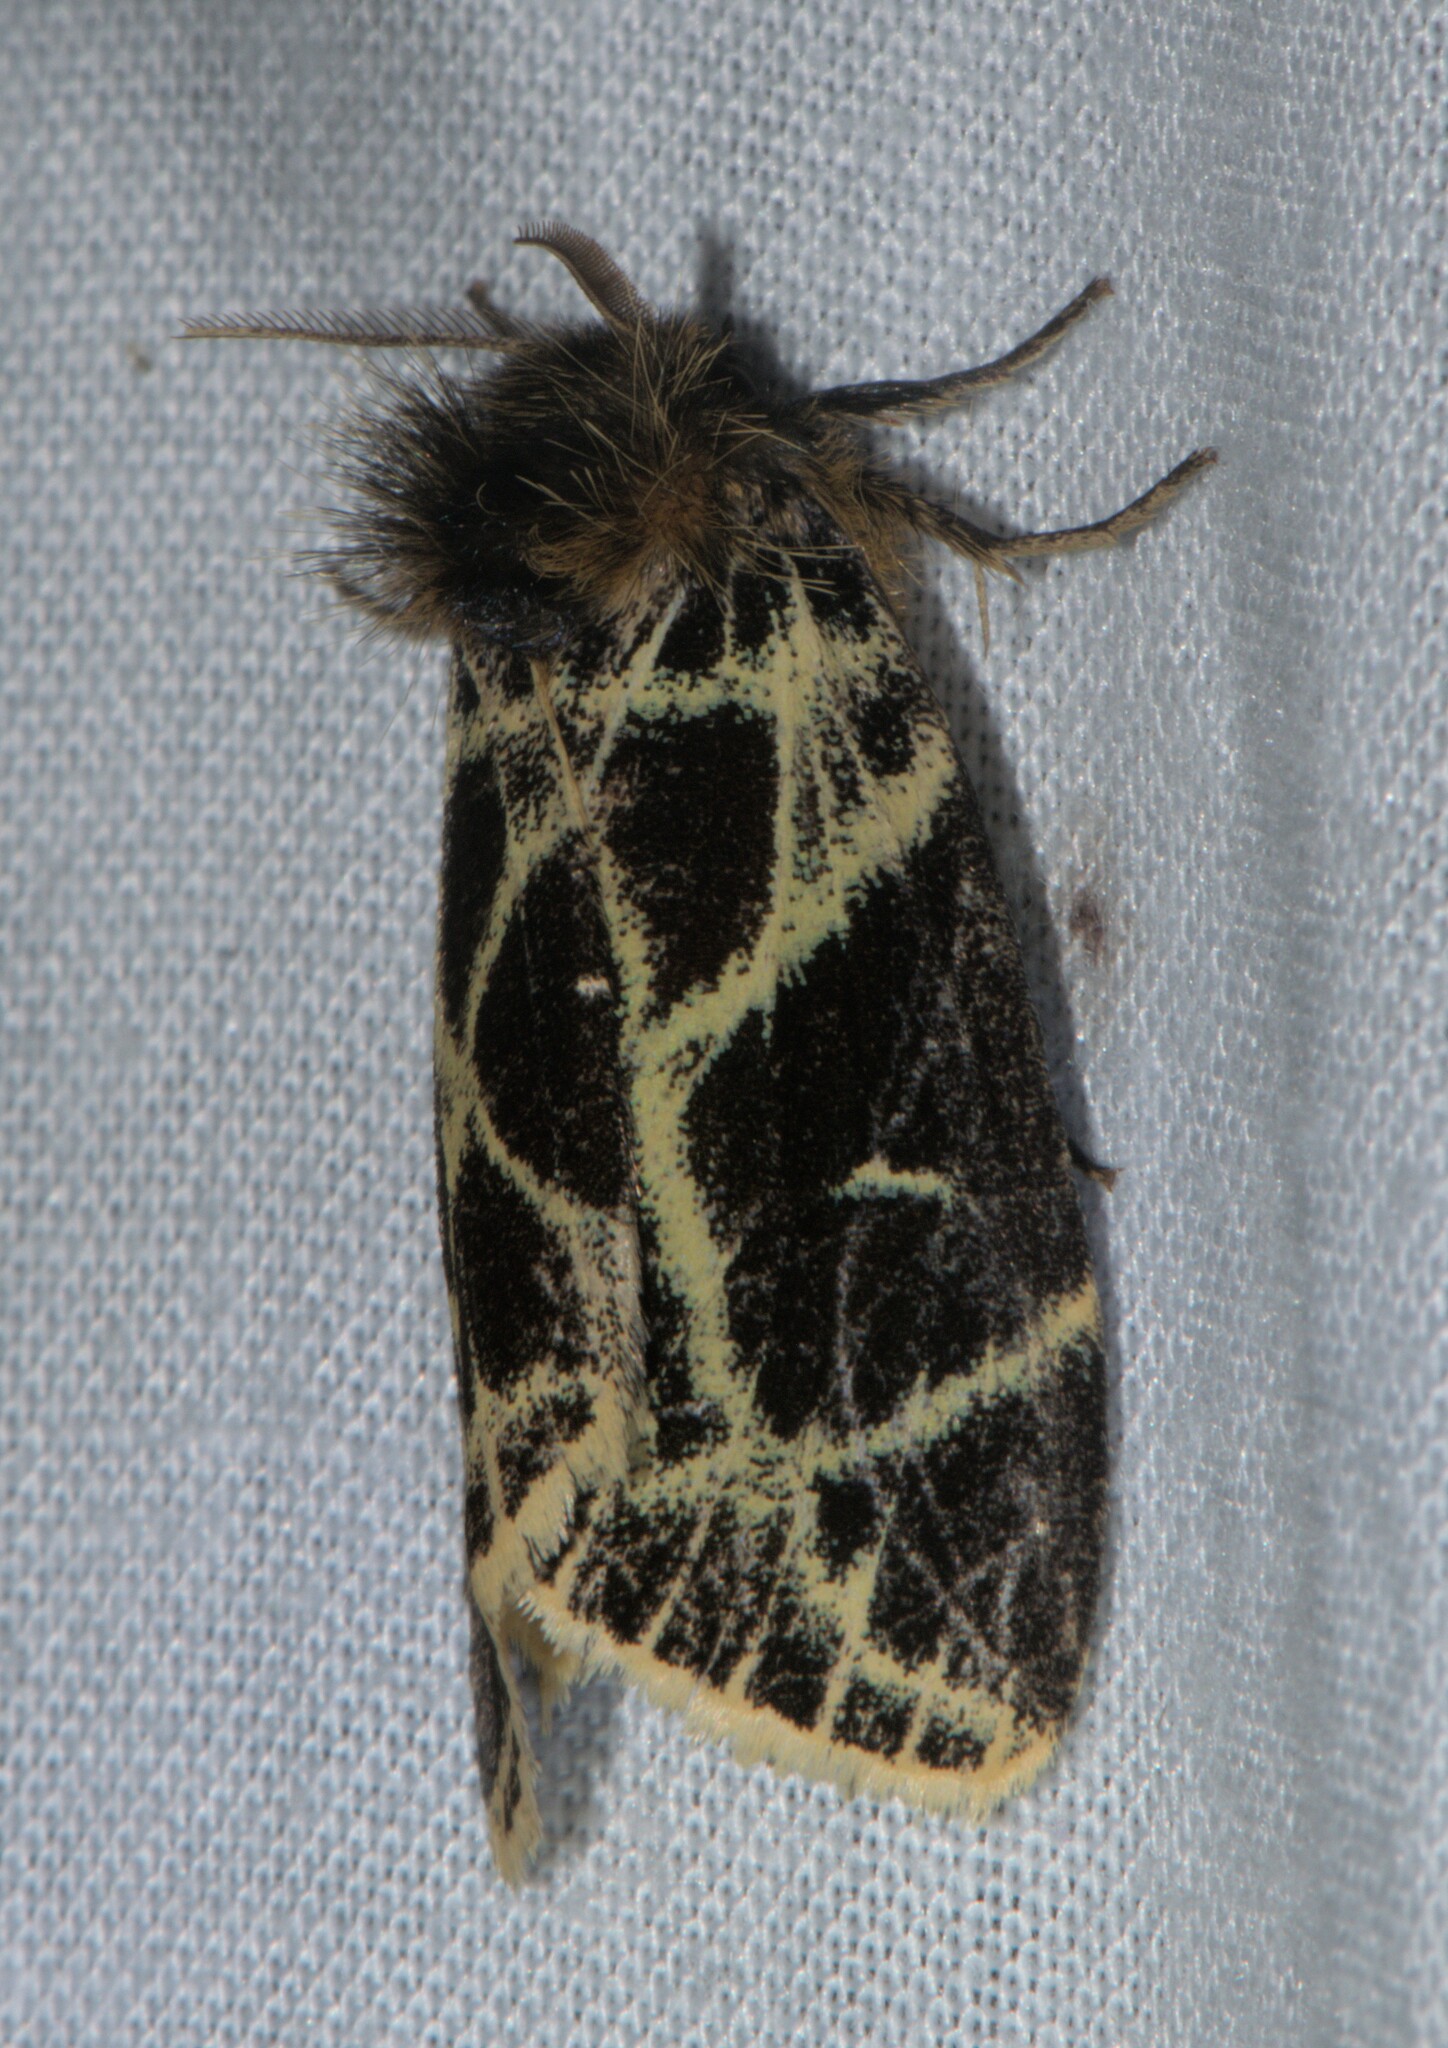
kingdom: Animalia
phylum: Arthropoda
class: Insecta
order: Lepidoptera
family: Erebidae
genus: Pida
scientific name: Pida
